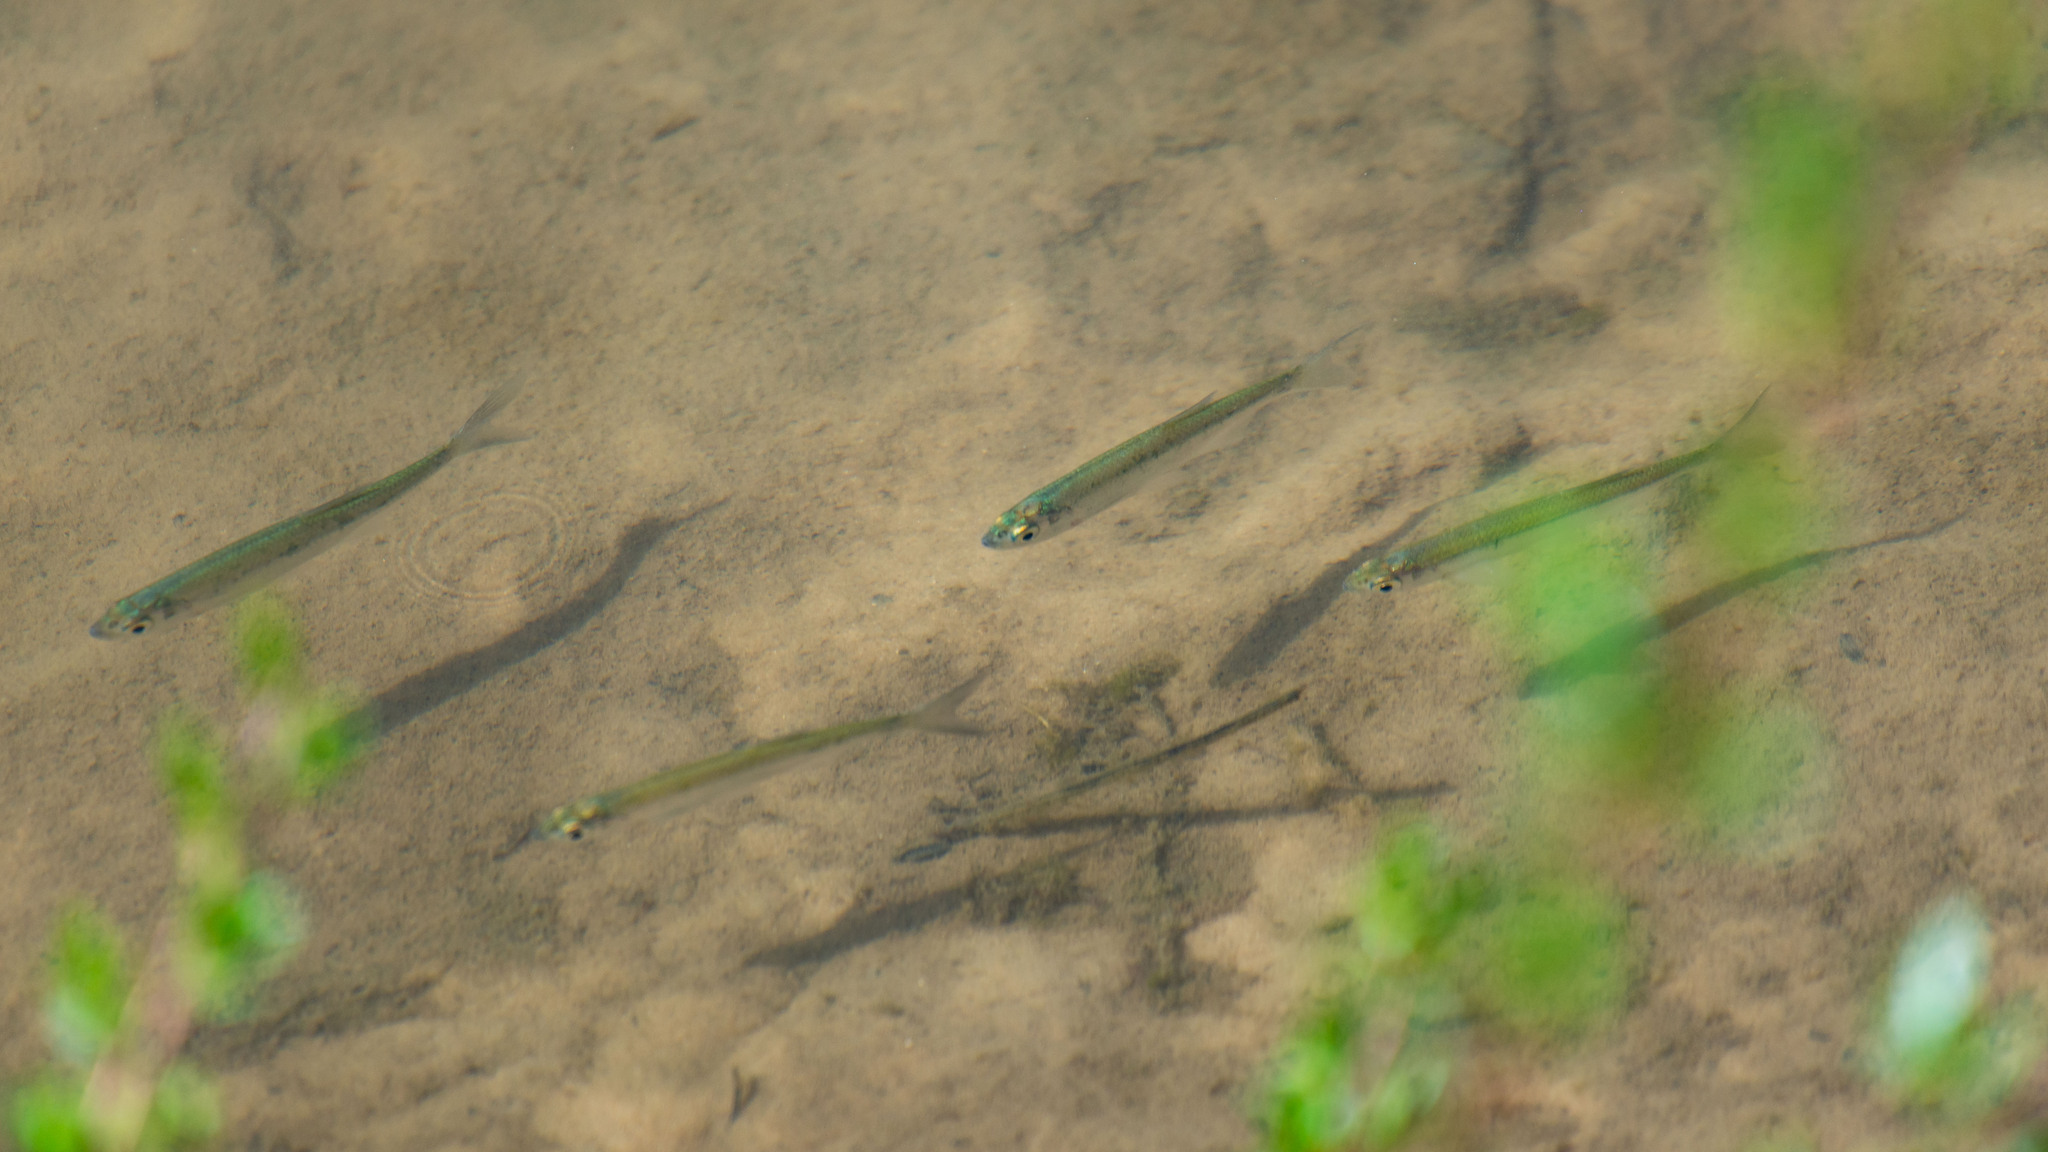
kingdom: Animalia
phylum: Chordata
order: Cypriniformes
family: Cyprinidae
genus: Alburnus
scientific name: Alburnus alburnus
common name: Bleak
